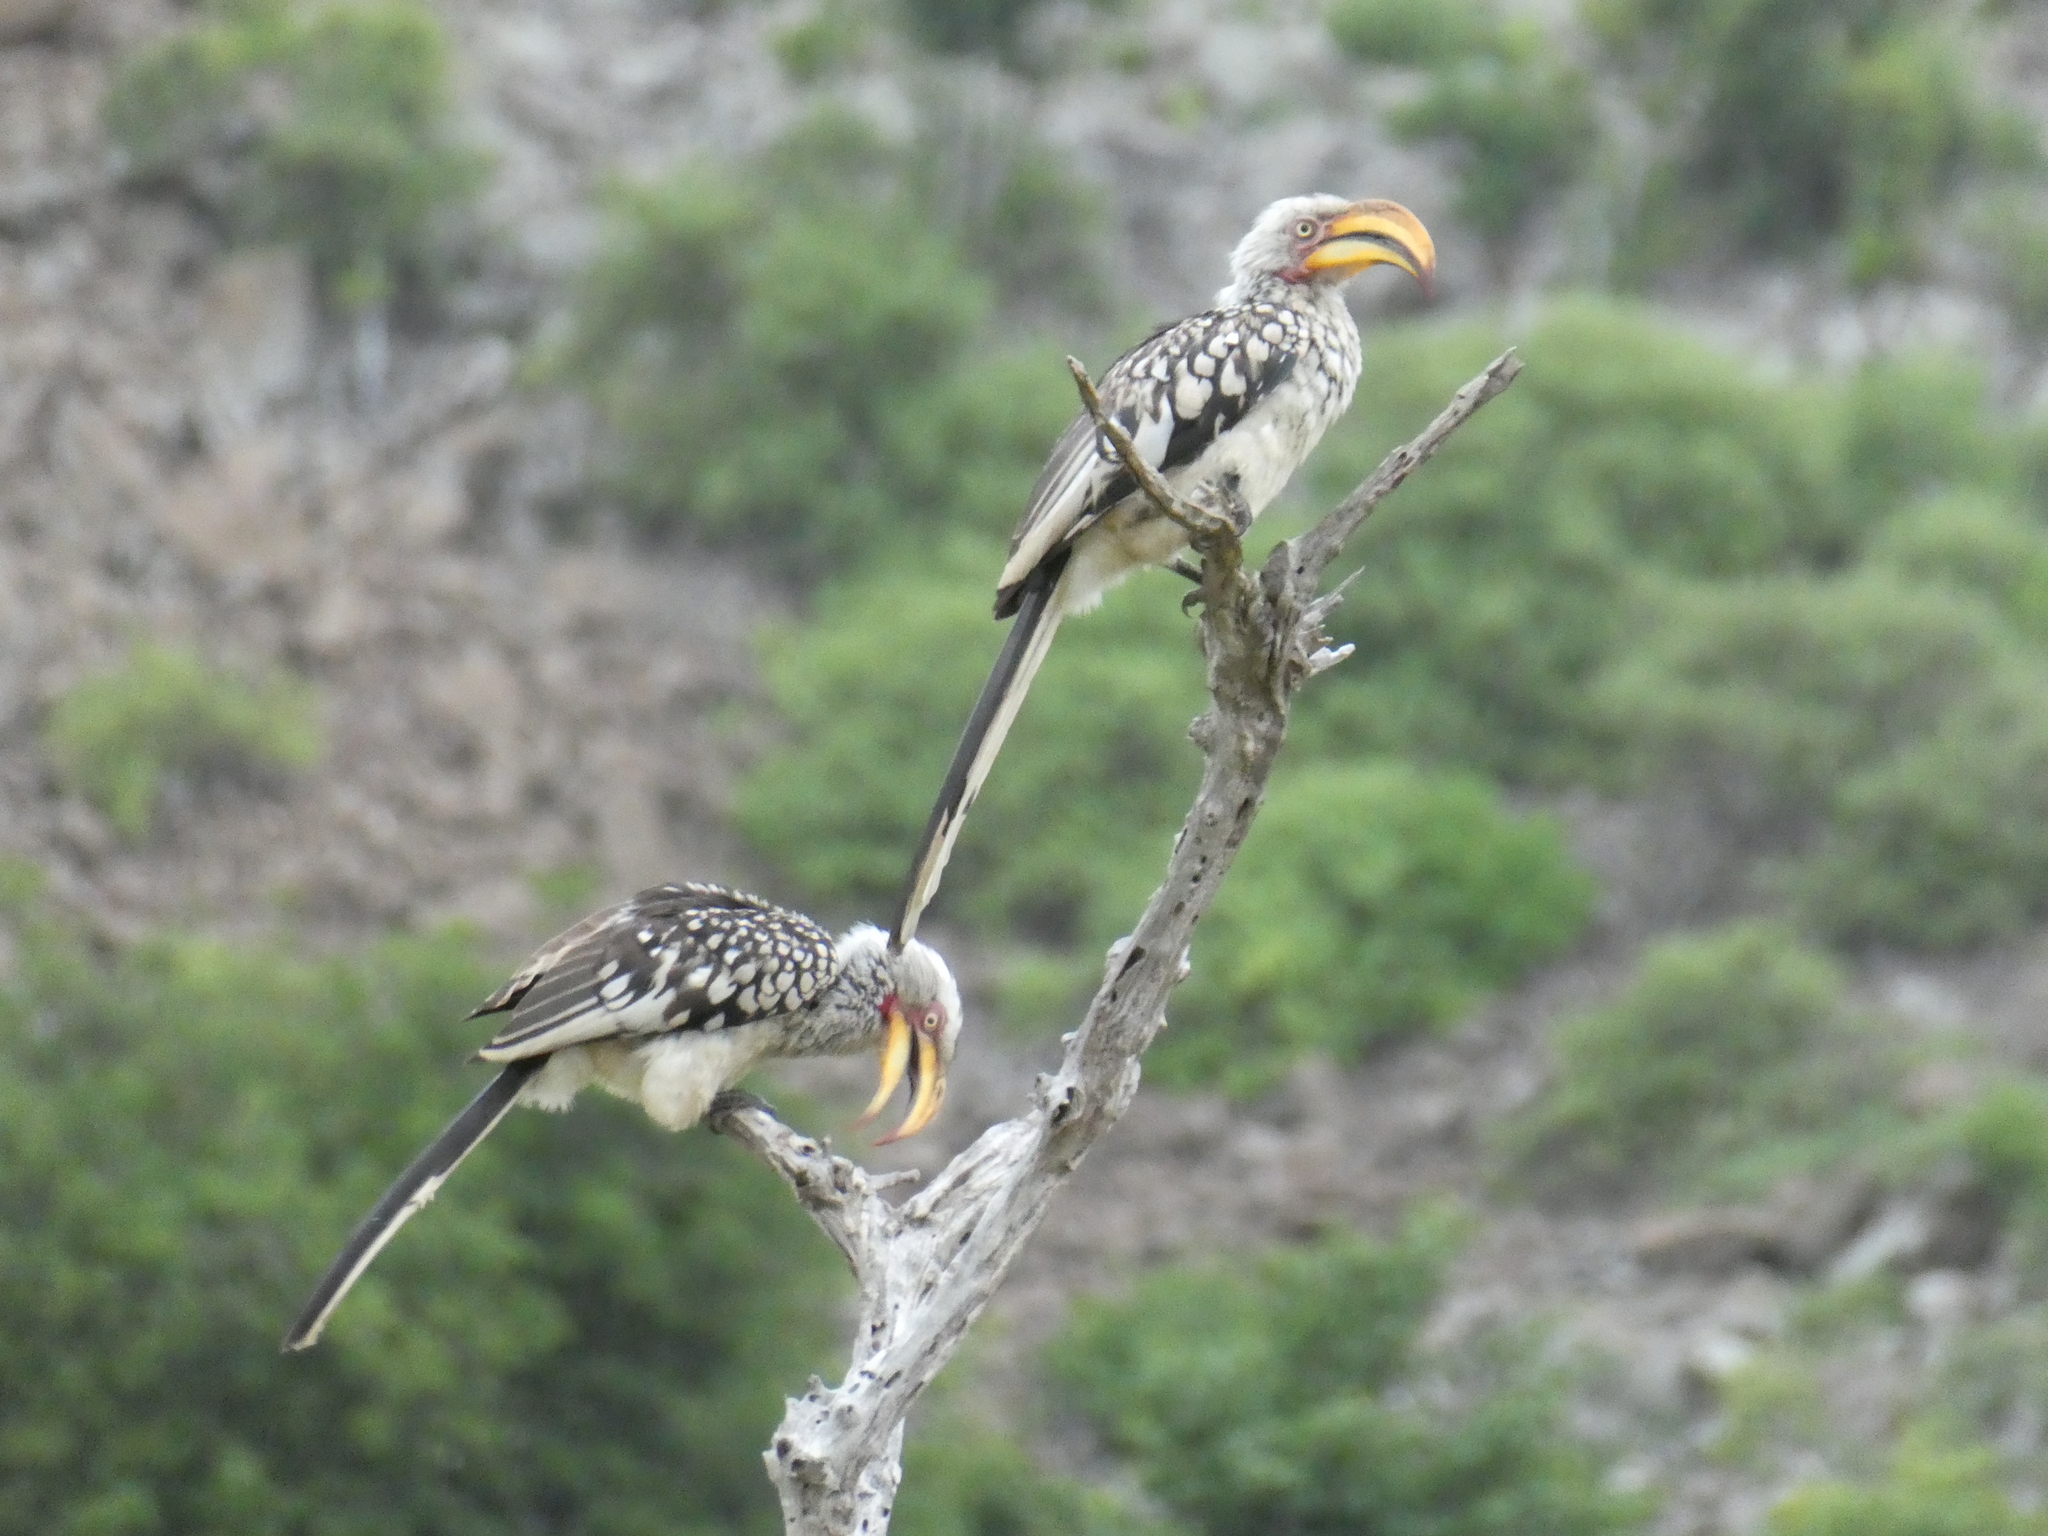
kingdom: Animalia
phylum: Chordata
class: Aves
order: Bucerotiformes
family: Bucerotidae
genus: Tockus
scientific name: Tockus leucomelas
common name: Southern yellow-billed hornbill
